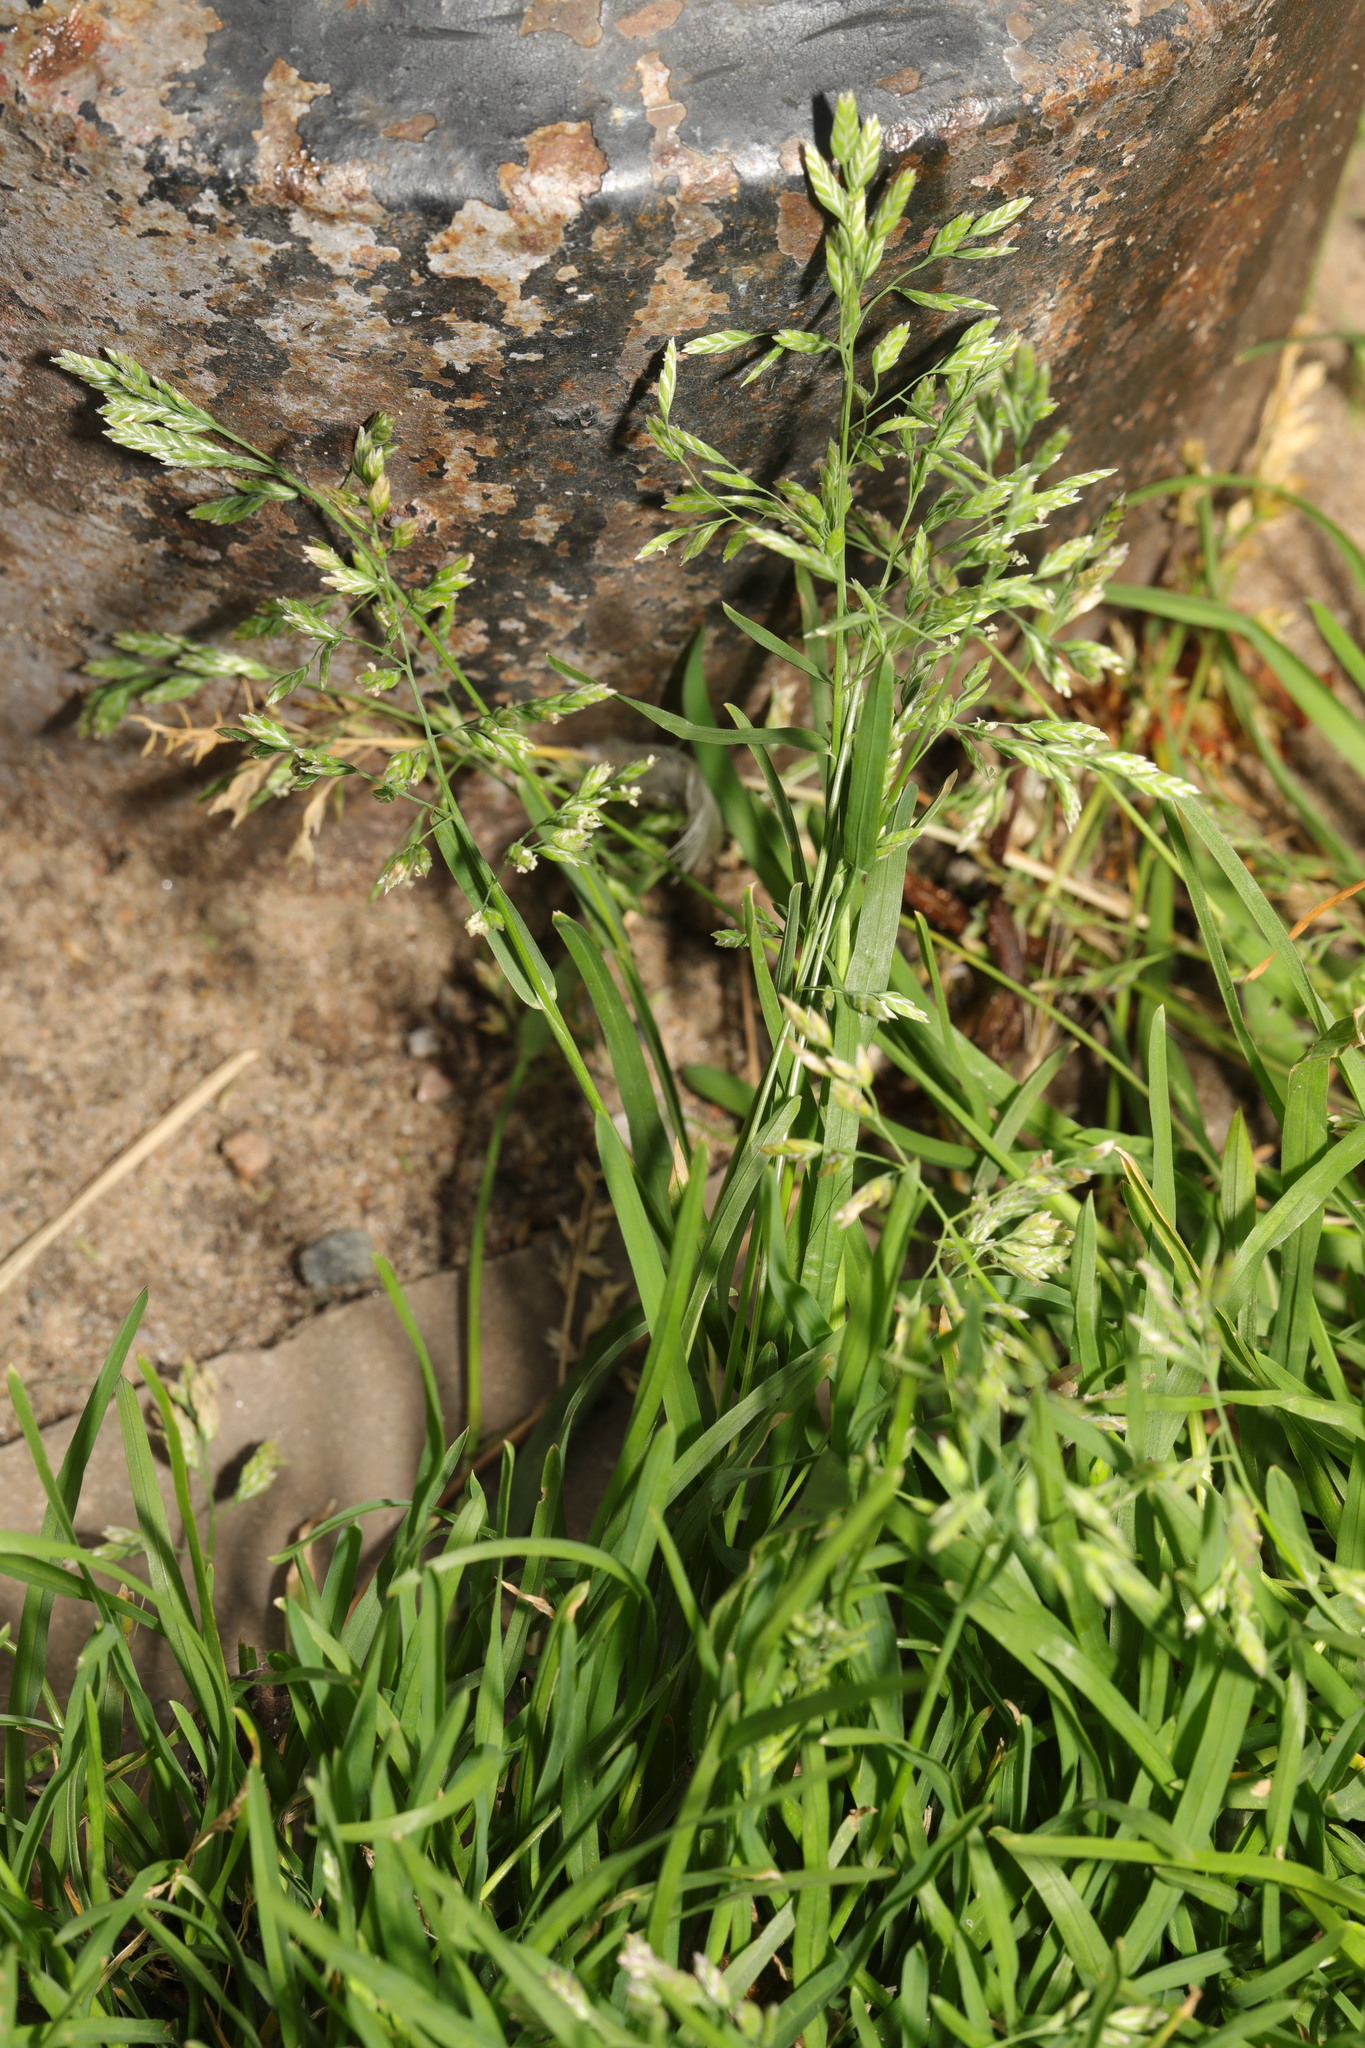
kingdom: Plantae
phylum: Tracheophyta
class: Liliopsida
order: Poales
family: Poaceae
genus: Poa
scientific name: Poa annua
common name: Annual bluegrass
